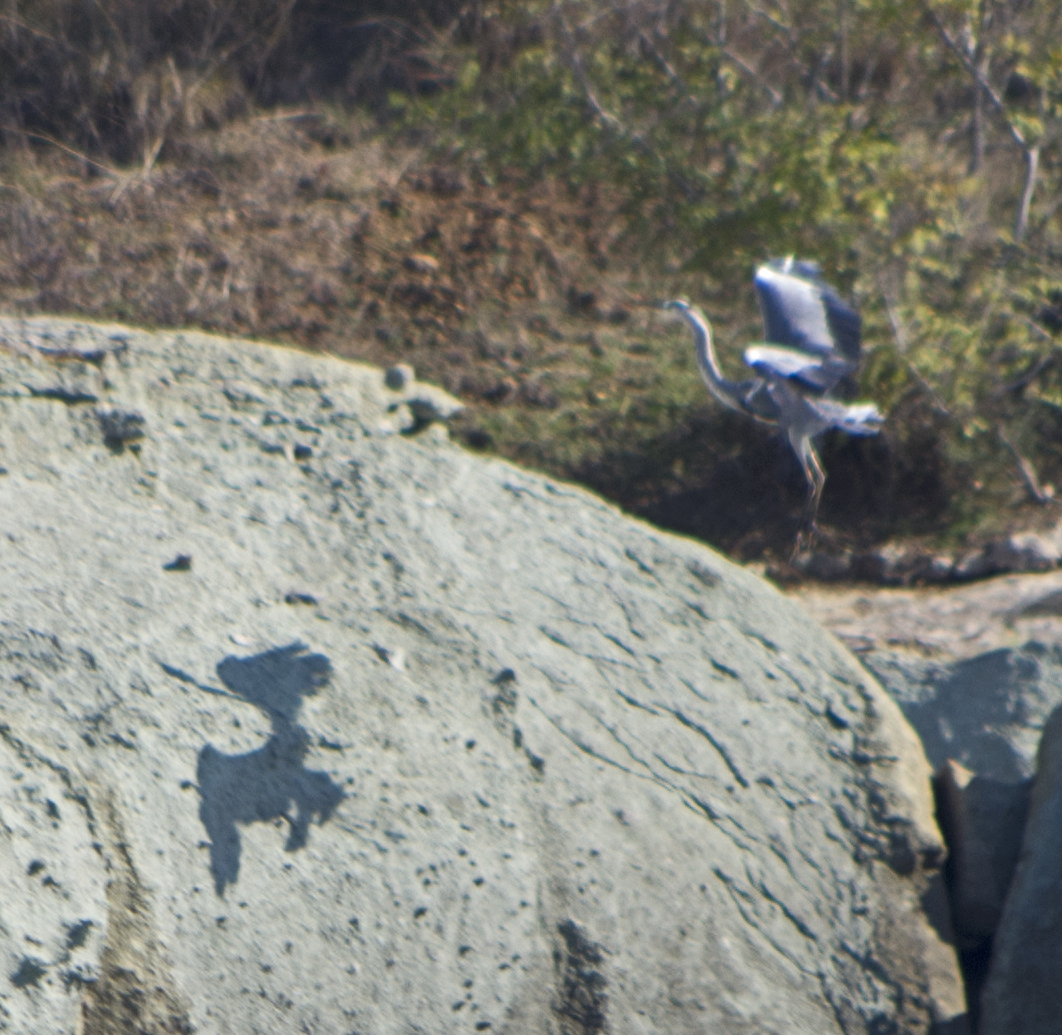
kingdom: Animalia
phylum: Chordata
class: Aves
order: Pelecaniformes
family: Ardeidae
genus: Ardea
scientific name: Ardea cinerea
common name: Grey heron
